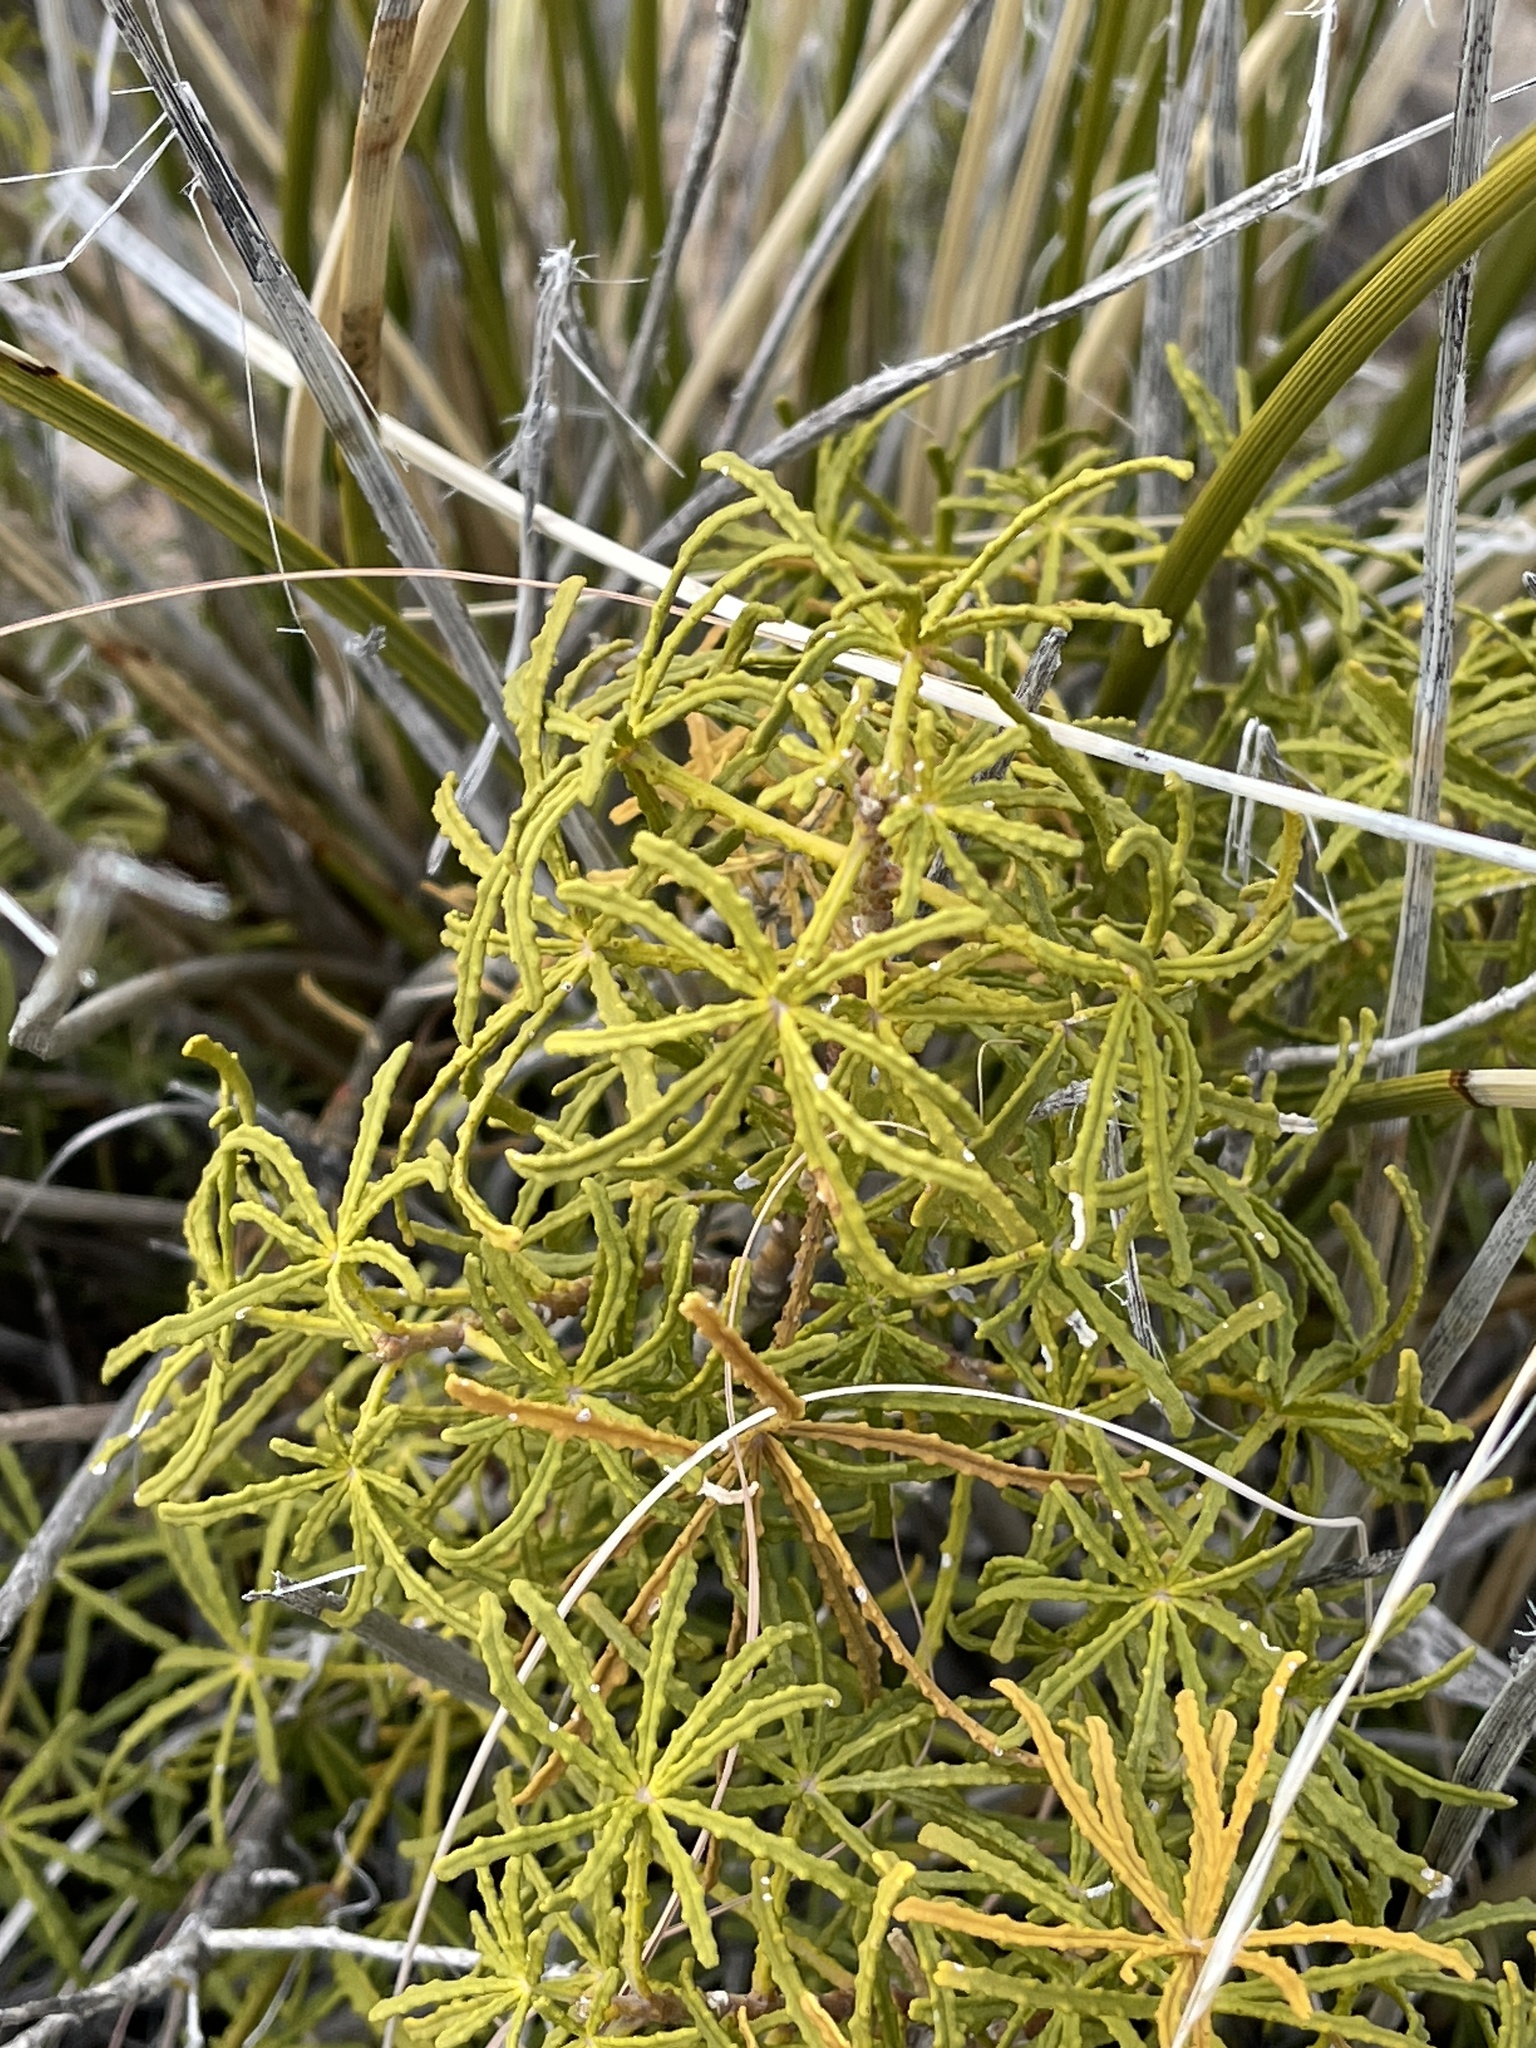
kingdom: Plantae
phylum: Tracheophyta
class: Magnoliopsida
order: Sapindales
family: Rutaceae
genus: Choisya
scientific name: Choisya dumosa
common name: Mexican-orange
